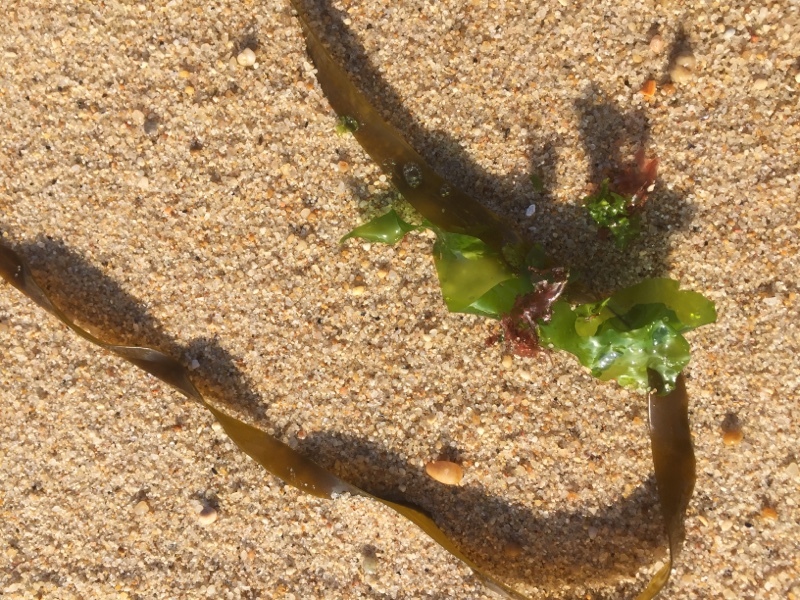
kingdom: Plantae
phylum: Chlorophyta
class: Ulvophyceae
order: Ulvales
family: Ulvaceae
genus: Ulva
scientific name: Ulva lactuca
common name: Sea lettuce
